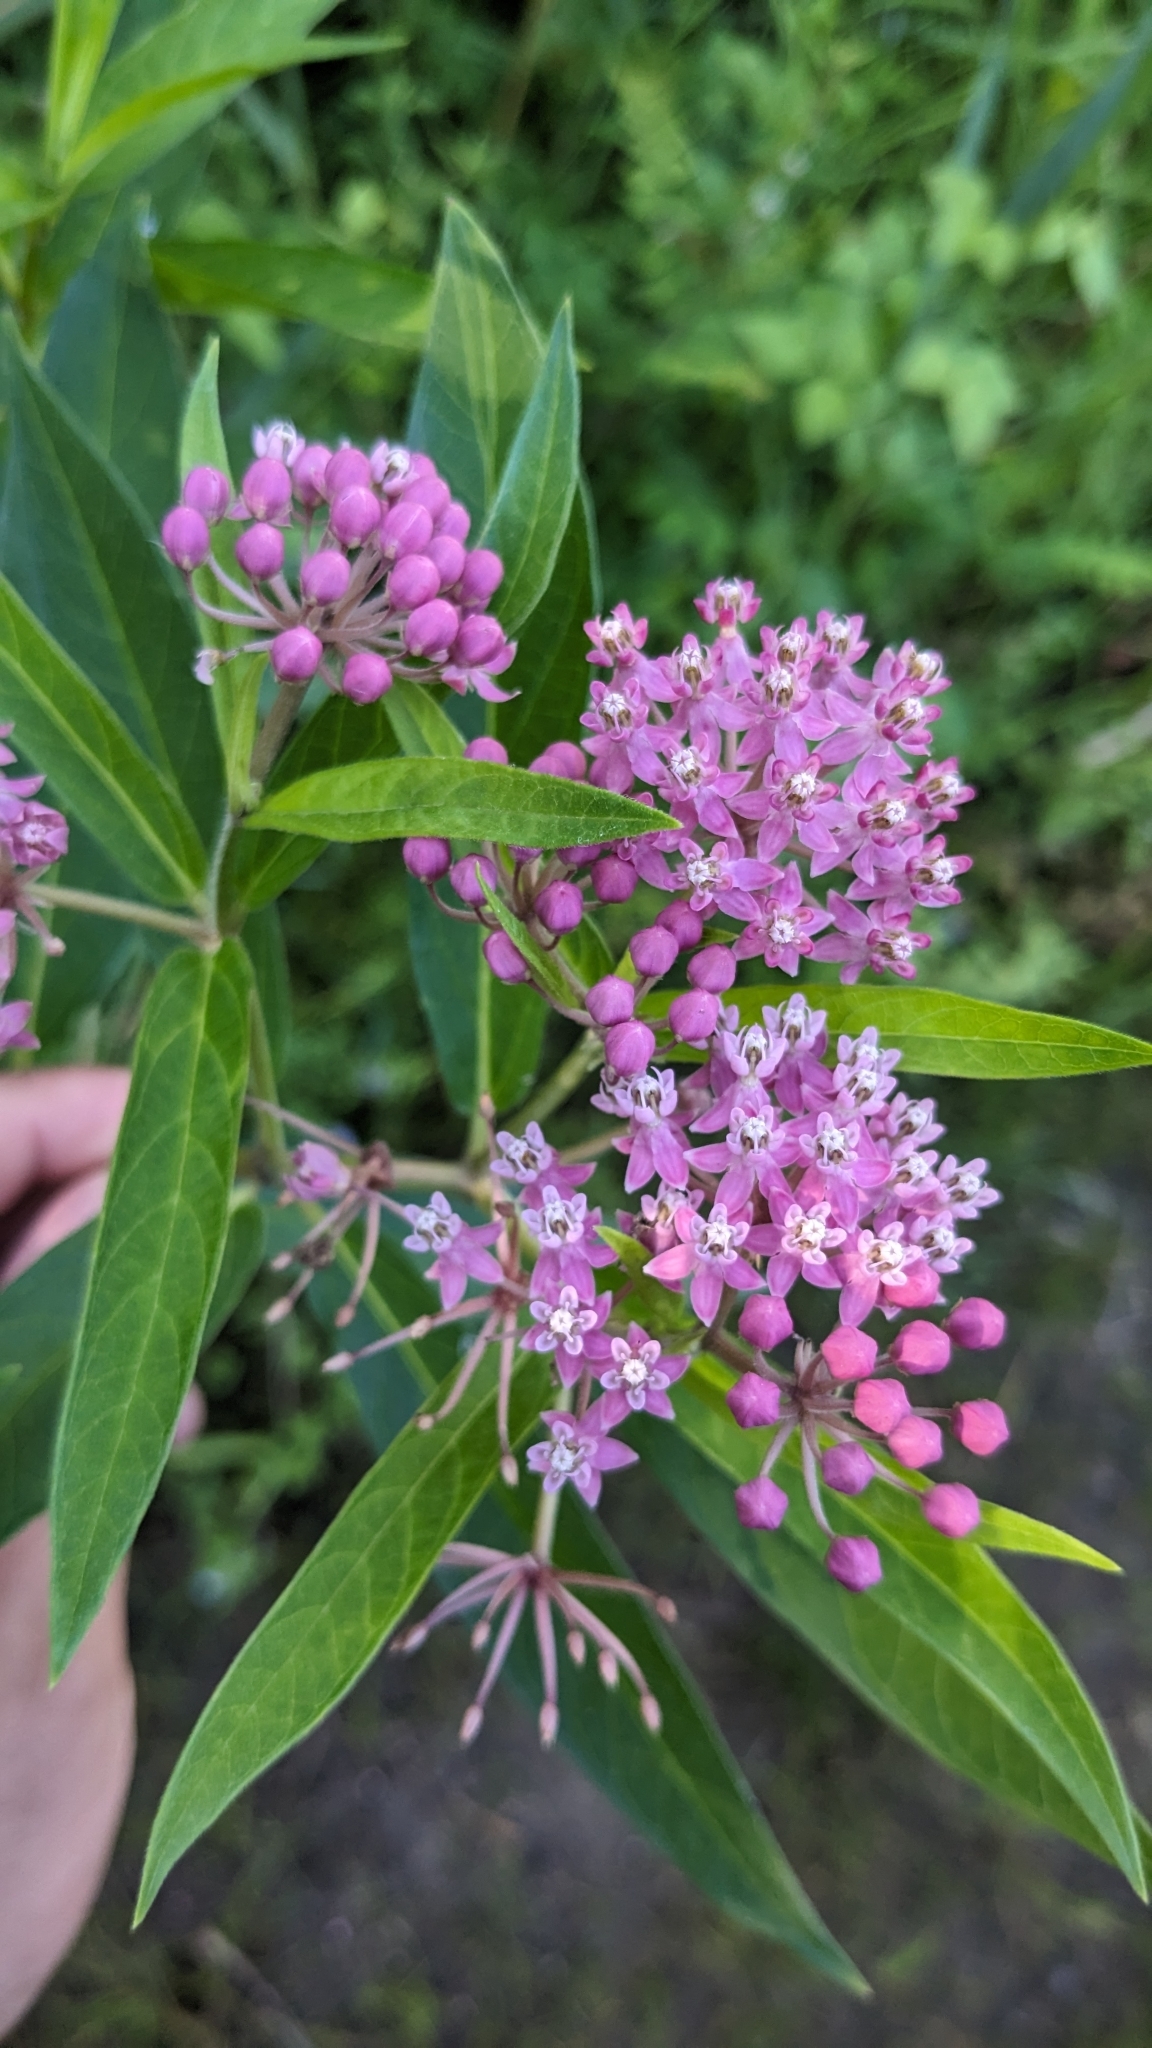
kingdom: Plantae
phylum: Tracheophyta
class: Magnoliopsida
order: Gentianales
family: Apocynaceae
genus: Asclepias
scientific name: Asclepias incarnata
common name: Swamp milkweed
